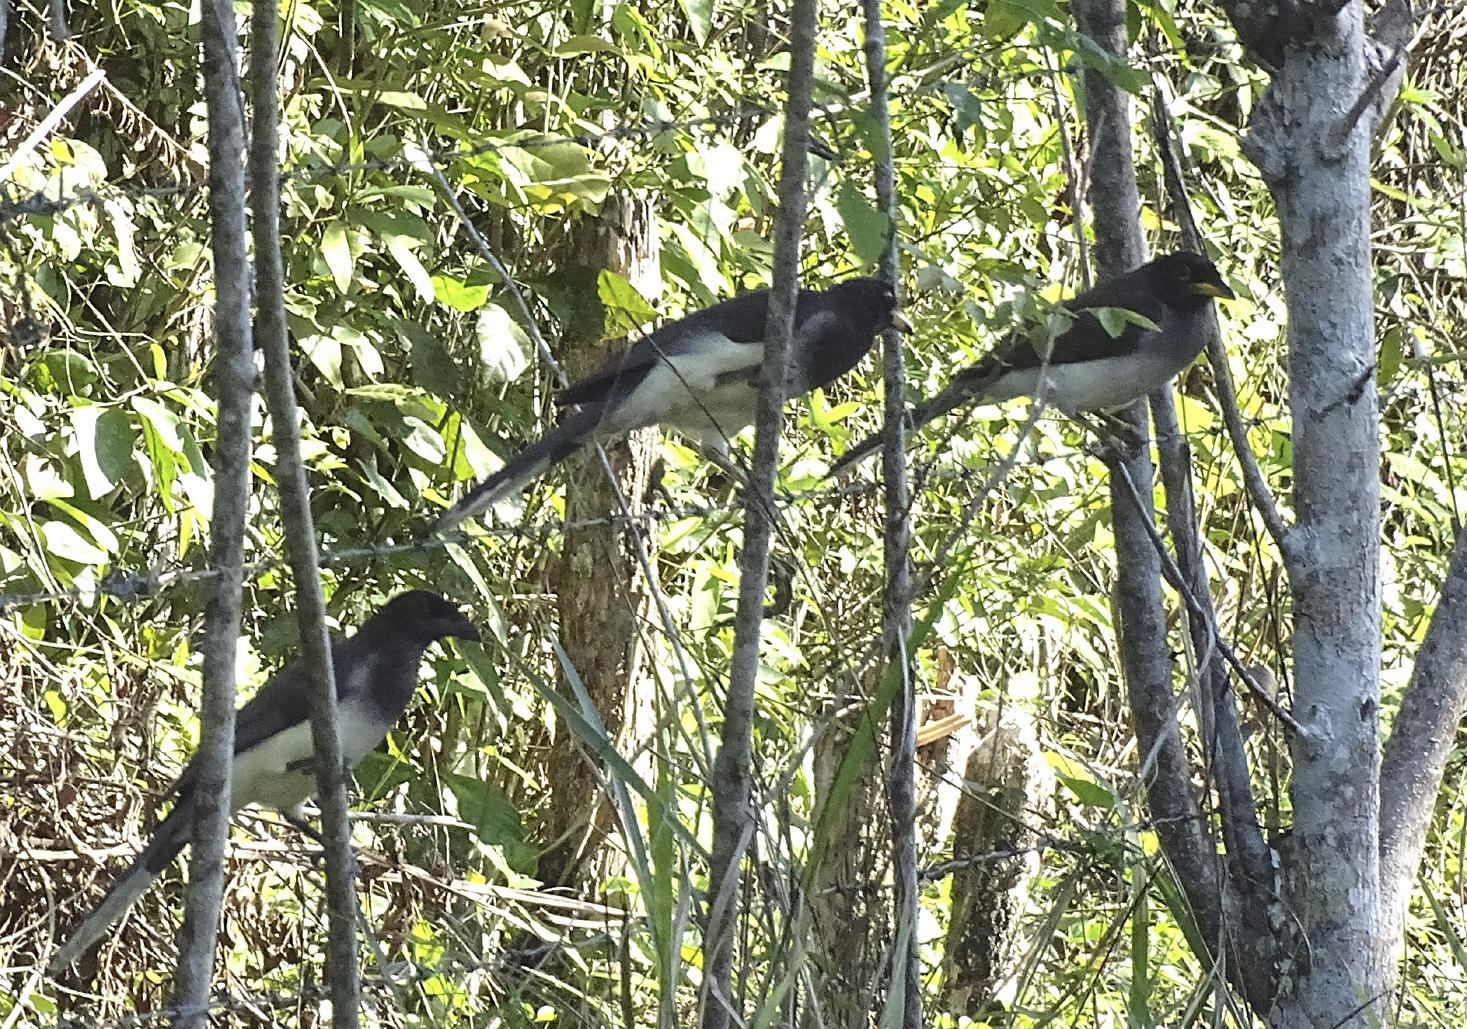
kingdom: Animalia
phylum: Chordata
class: Aves
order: Passeriformes
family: Corvidae
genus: Psilorhinus
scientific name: Psilorhinus morio
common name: Brown jay
